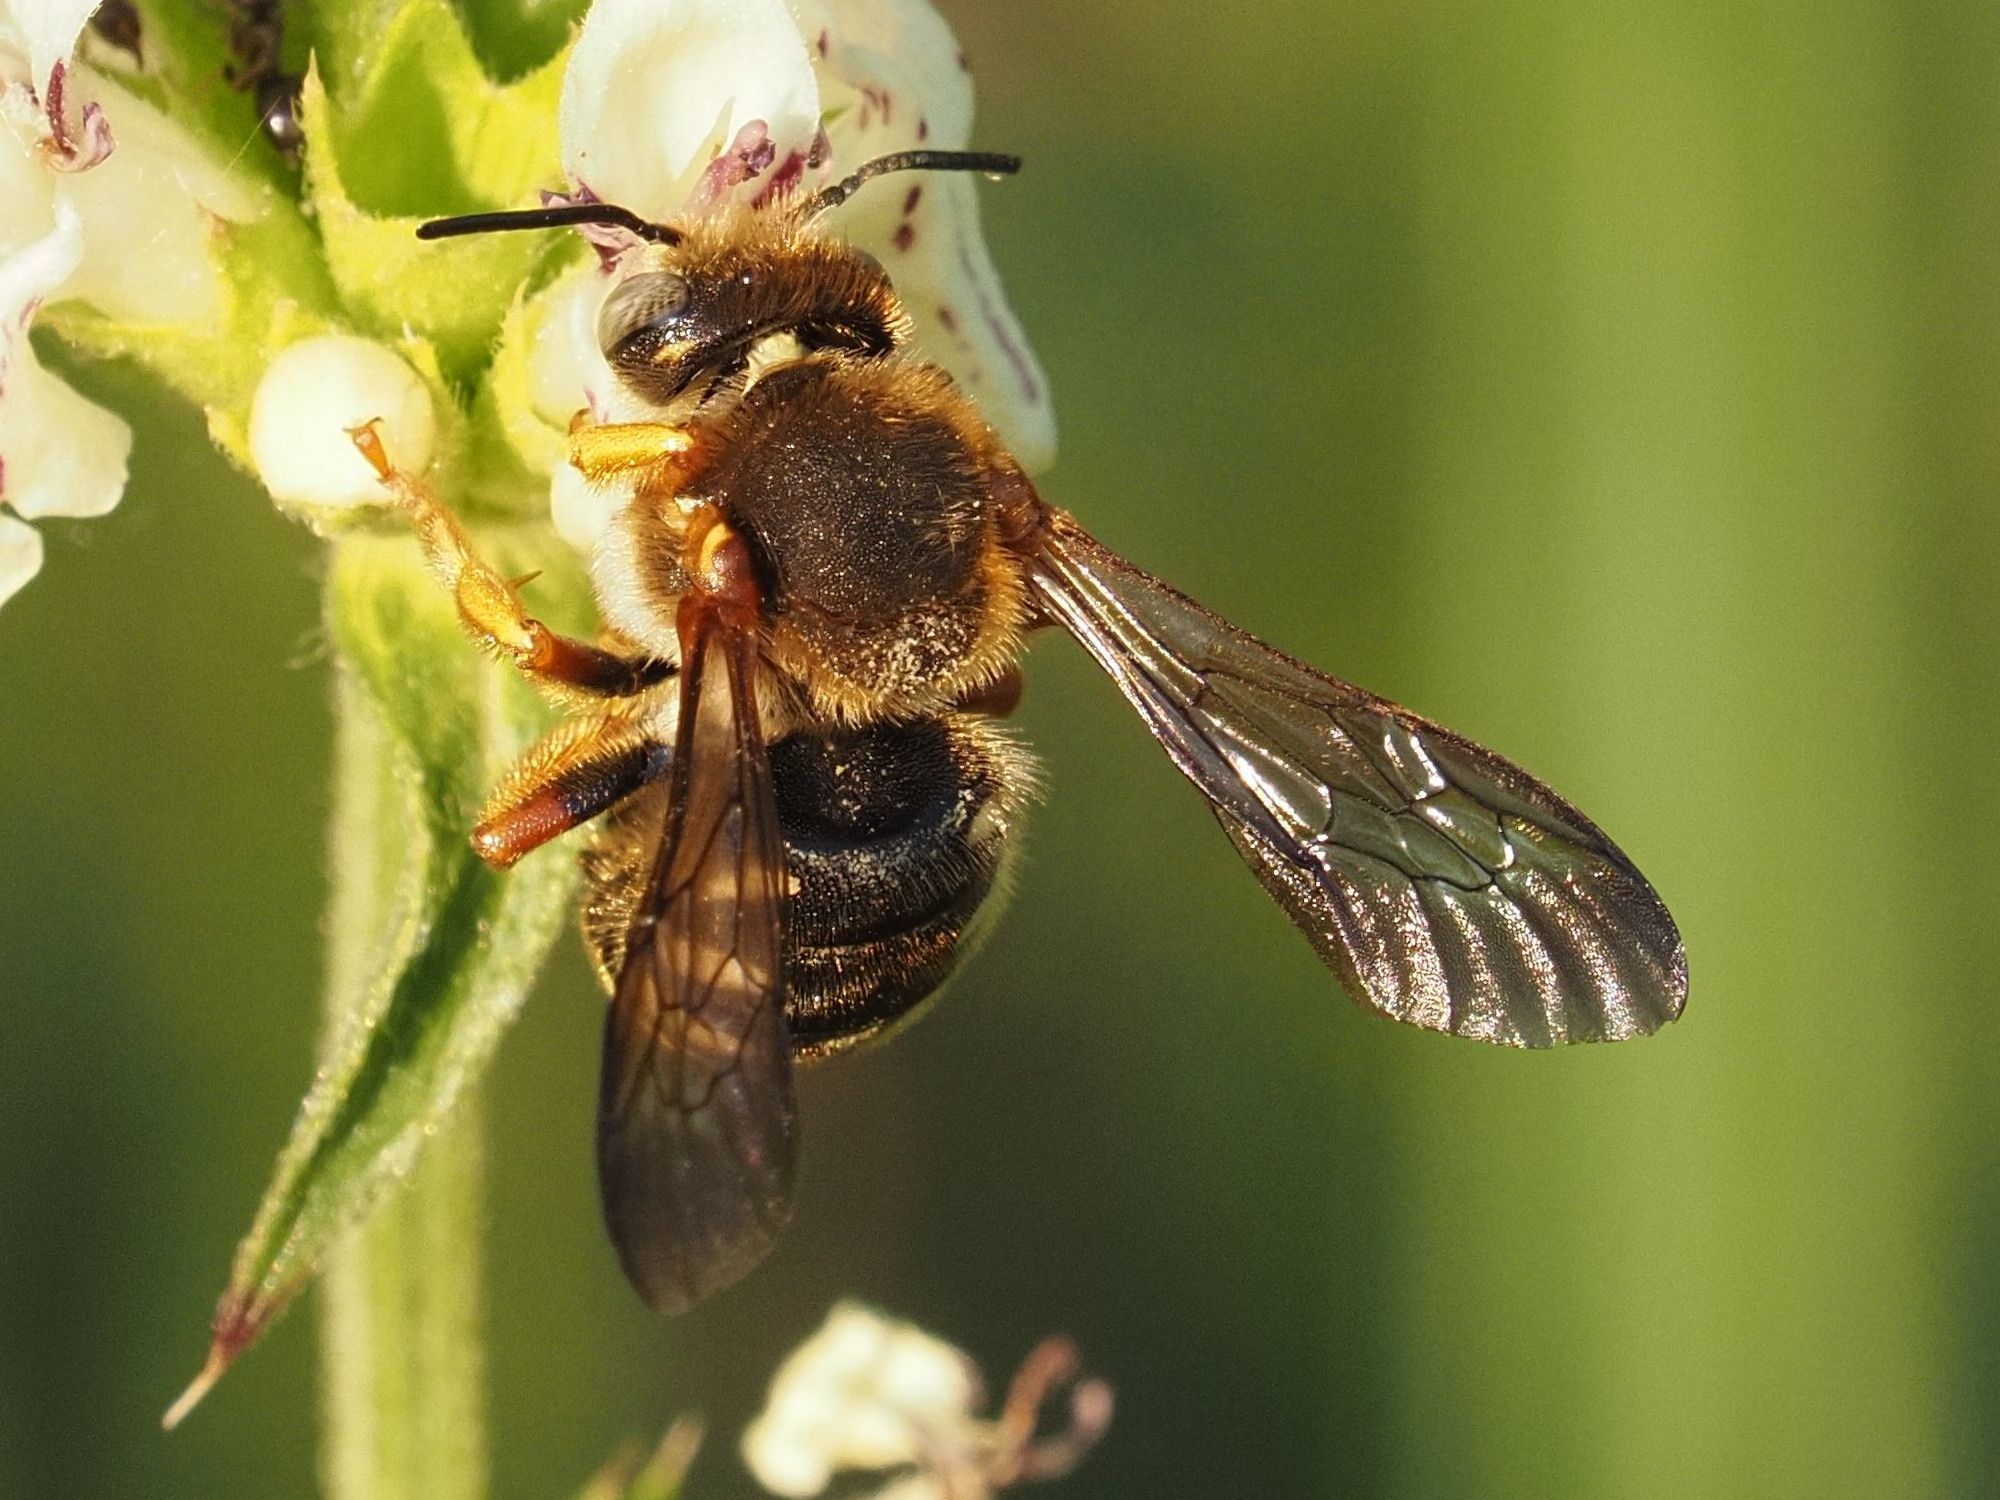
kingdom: Animalia
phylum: Arthropoda
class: Insecta
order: Hymenoptera
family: Megachilidae
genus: Rhodanthidium
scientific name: Rhodanthidium septemdentatum
